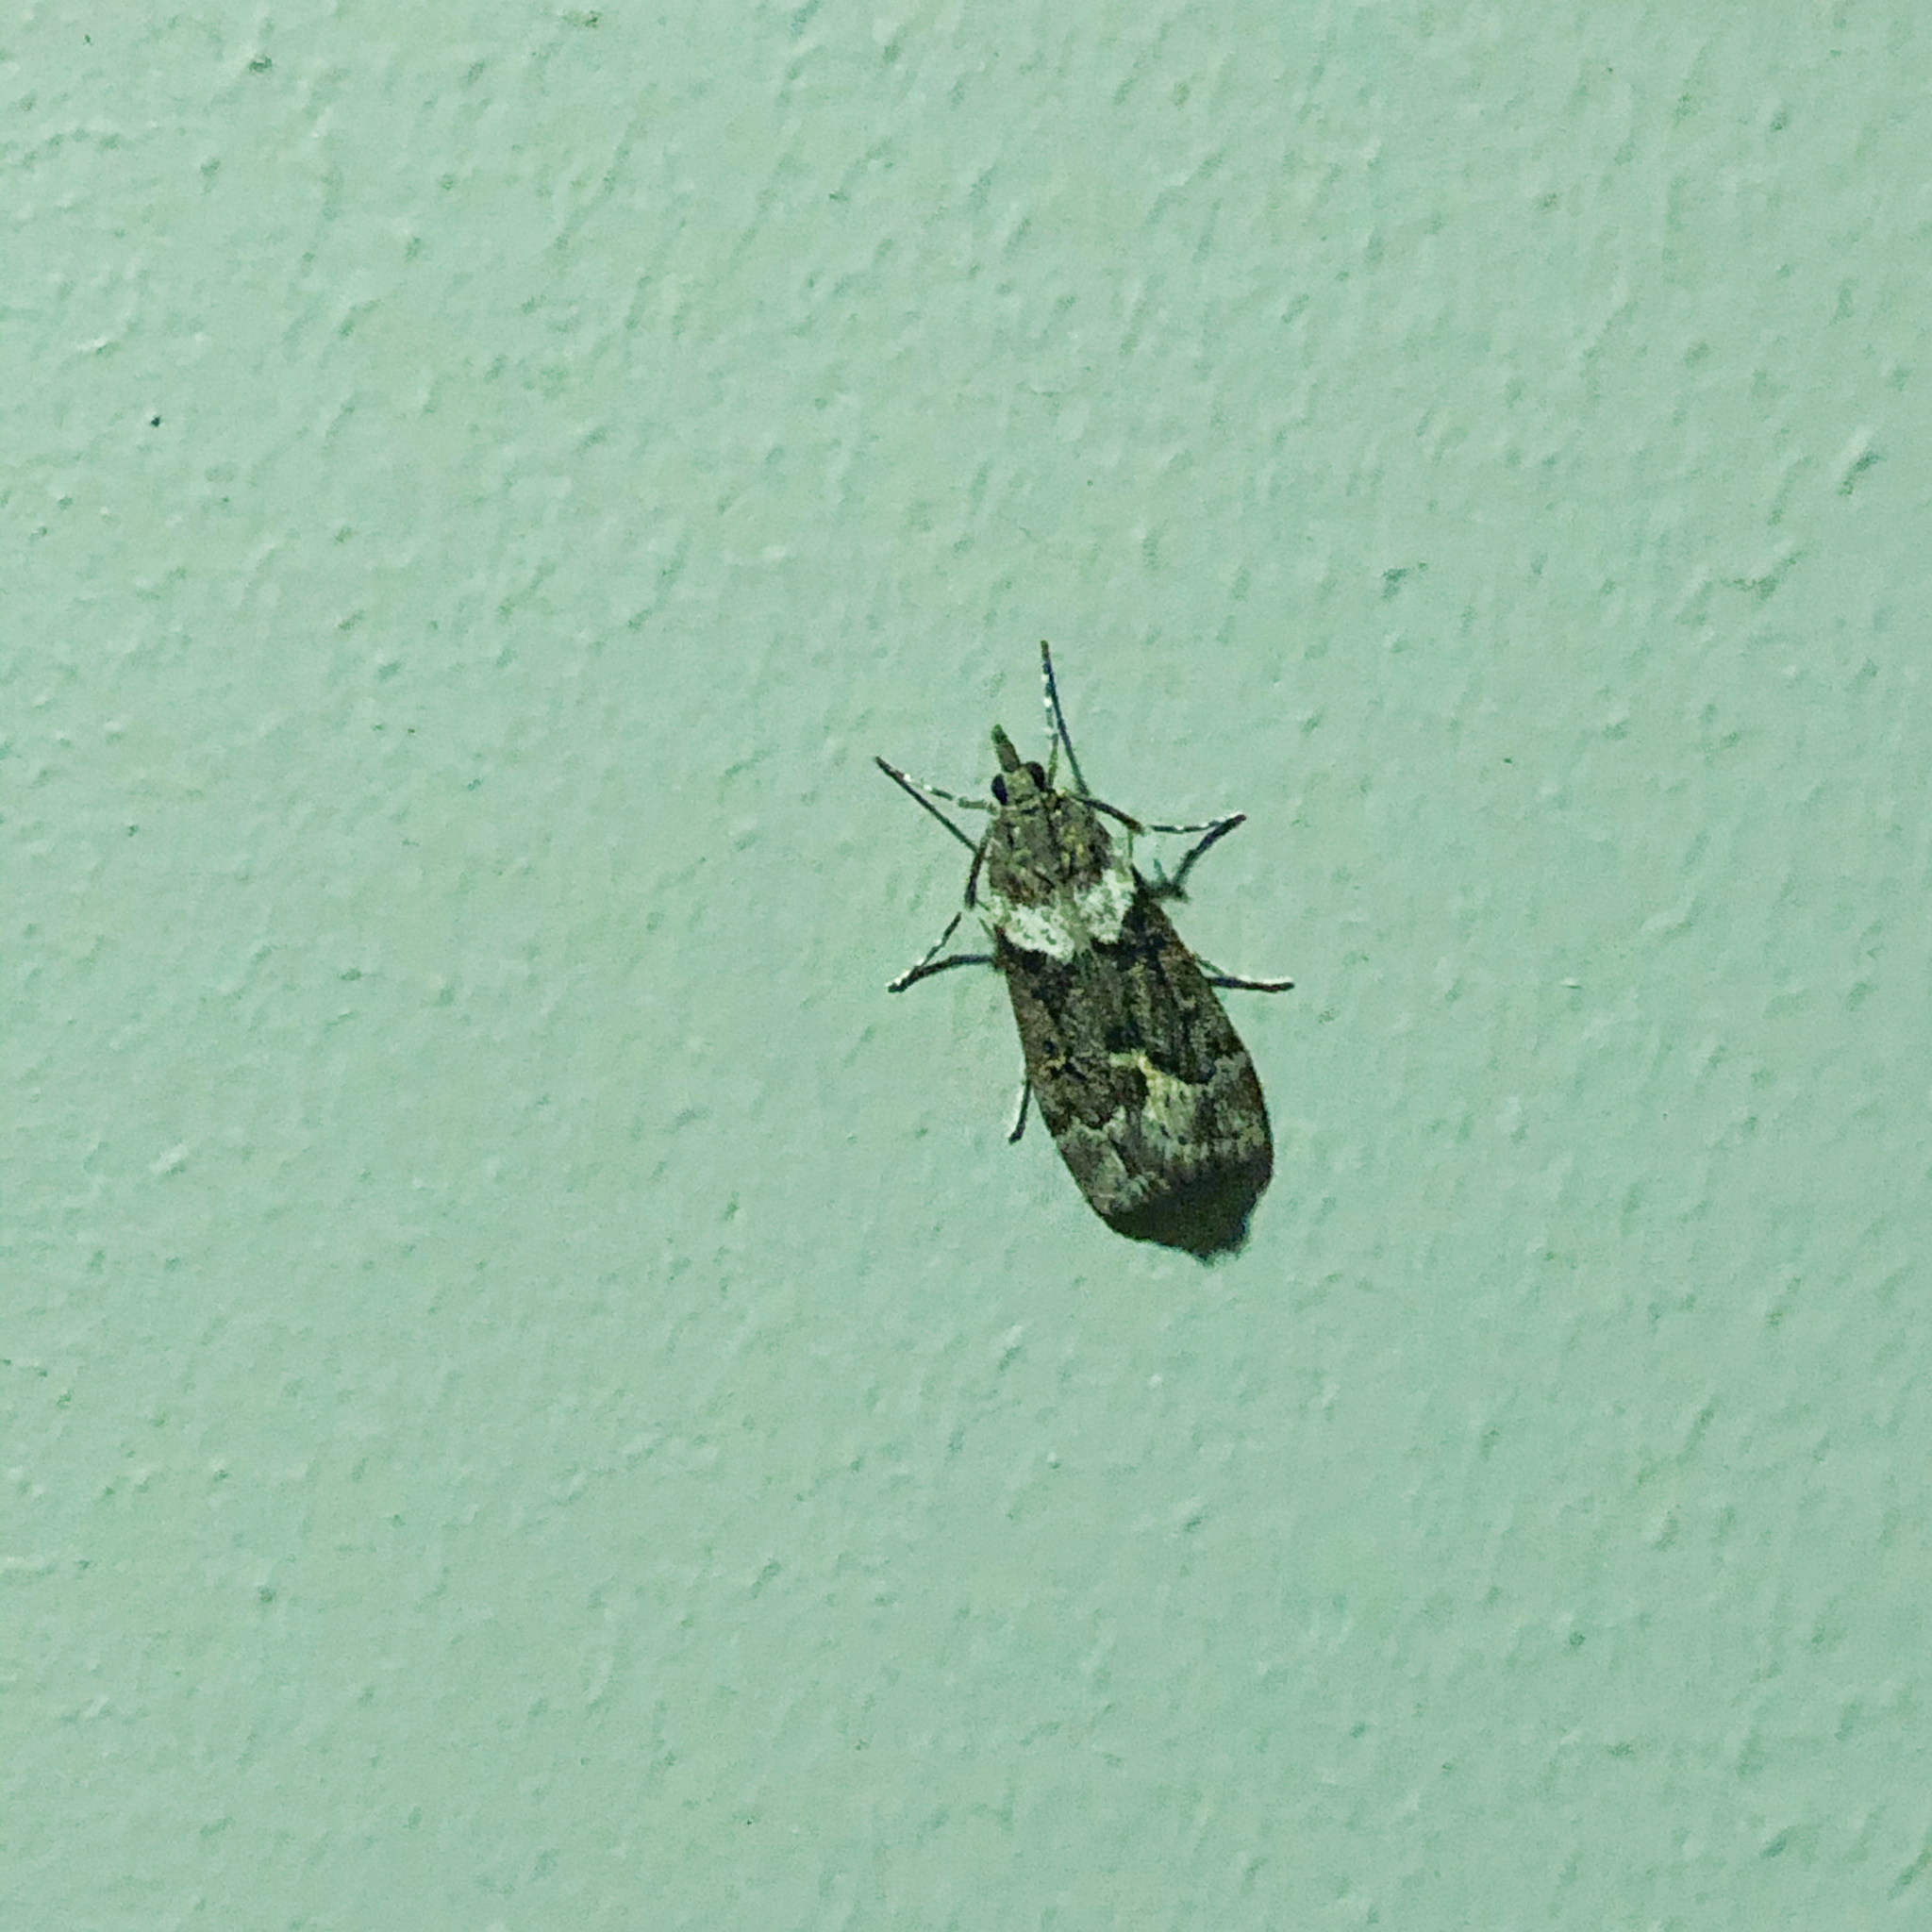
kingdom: Animalia
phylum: Arthropoda
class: Insecta
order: Lepidoptera
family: Crambidae
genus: Eudonia
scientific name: Eudonia submarginalis
